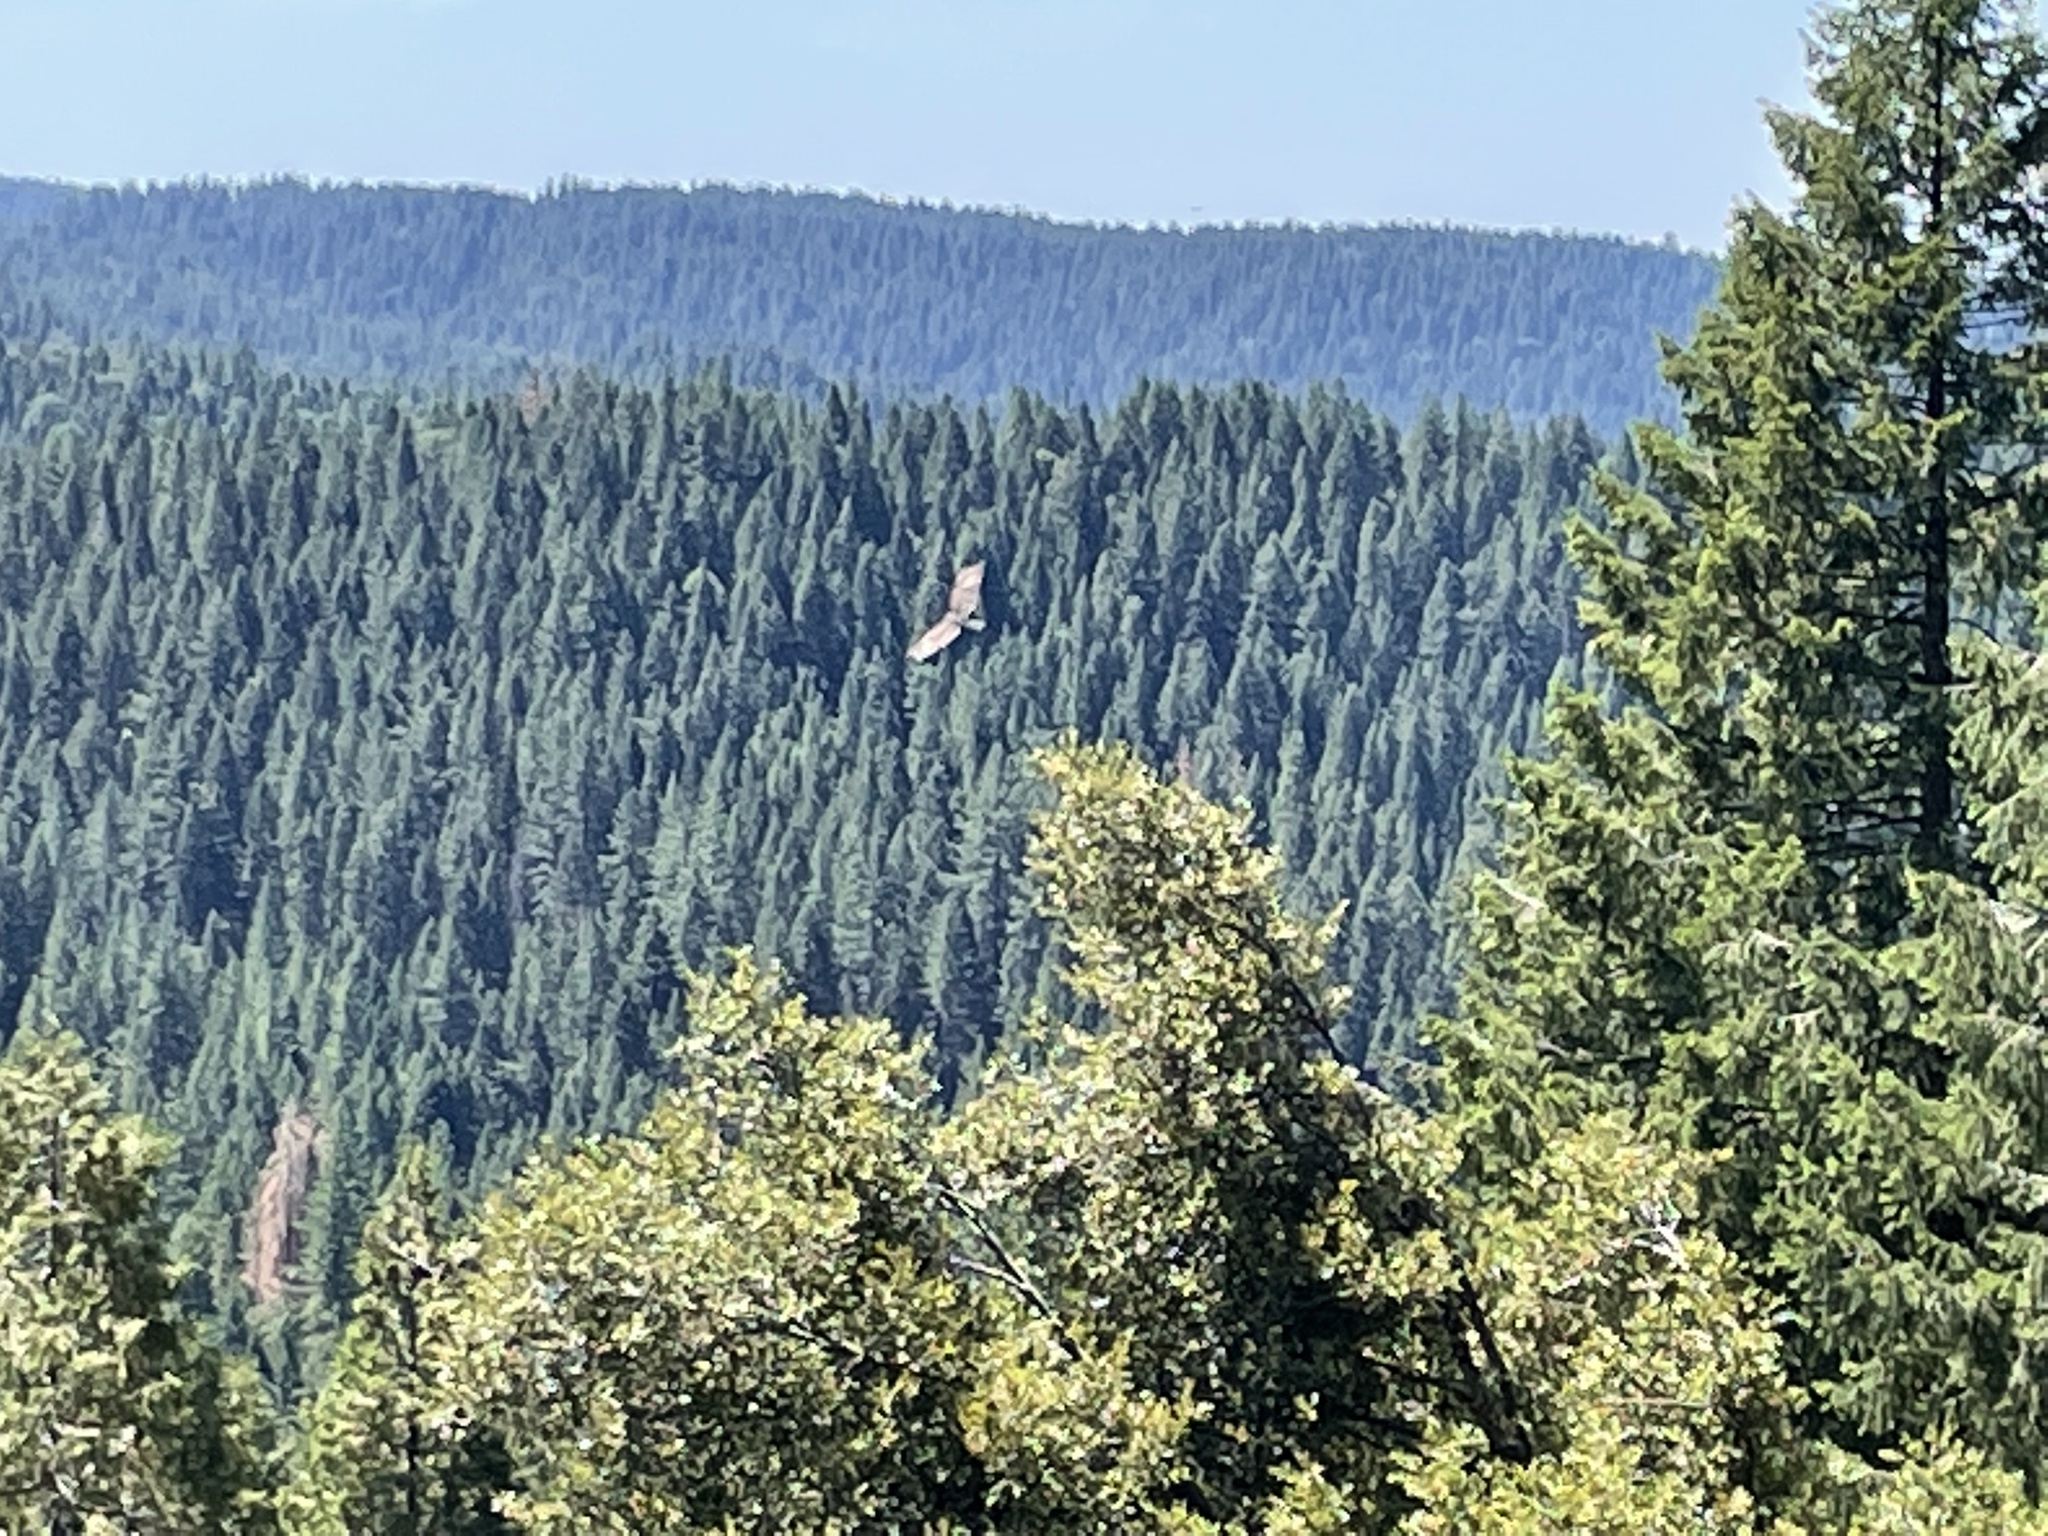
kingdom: Animalia
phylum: Chordata
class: Aves
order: Accipitriformes
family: Cathartidae
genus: Cathartes
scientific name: Cathartes aura
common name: Turkey vulture
